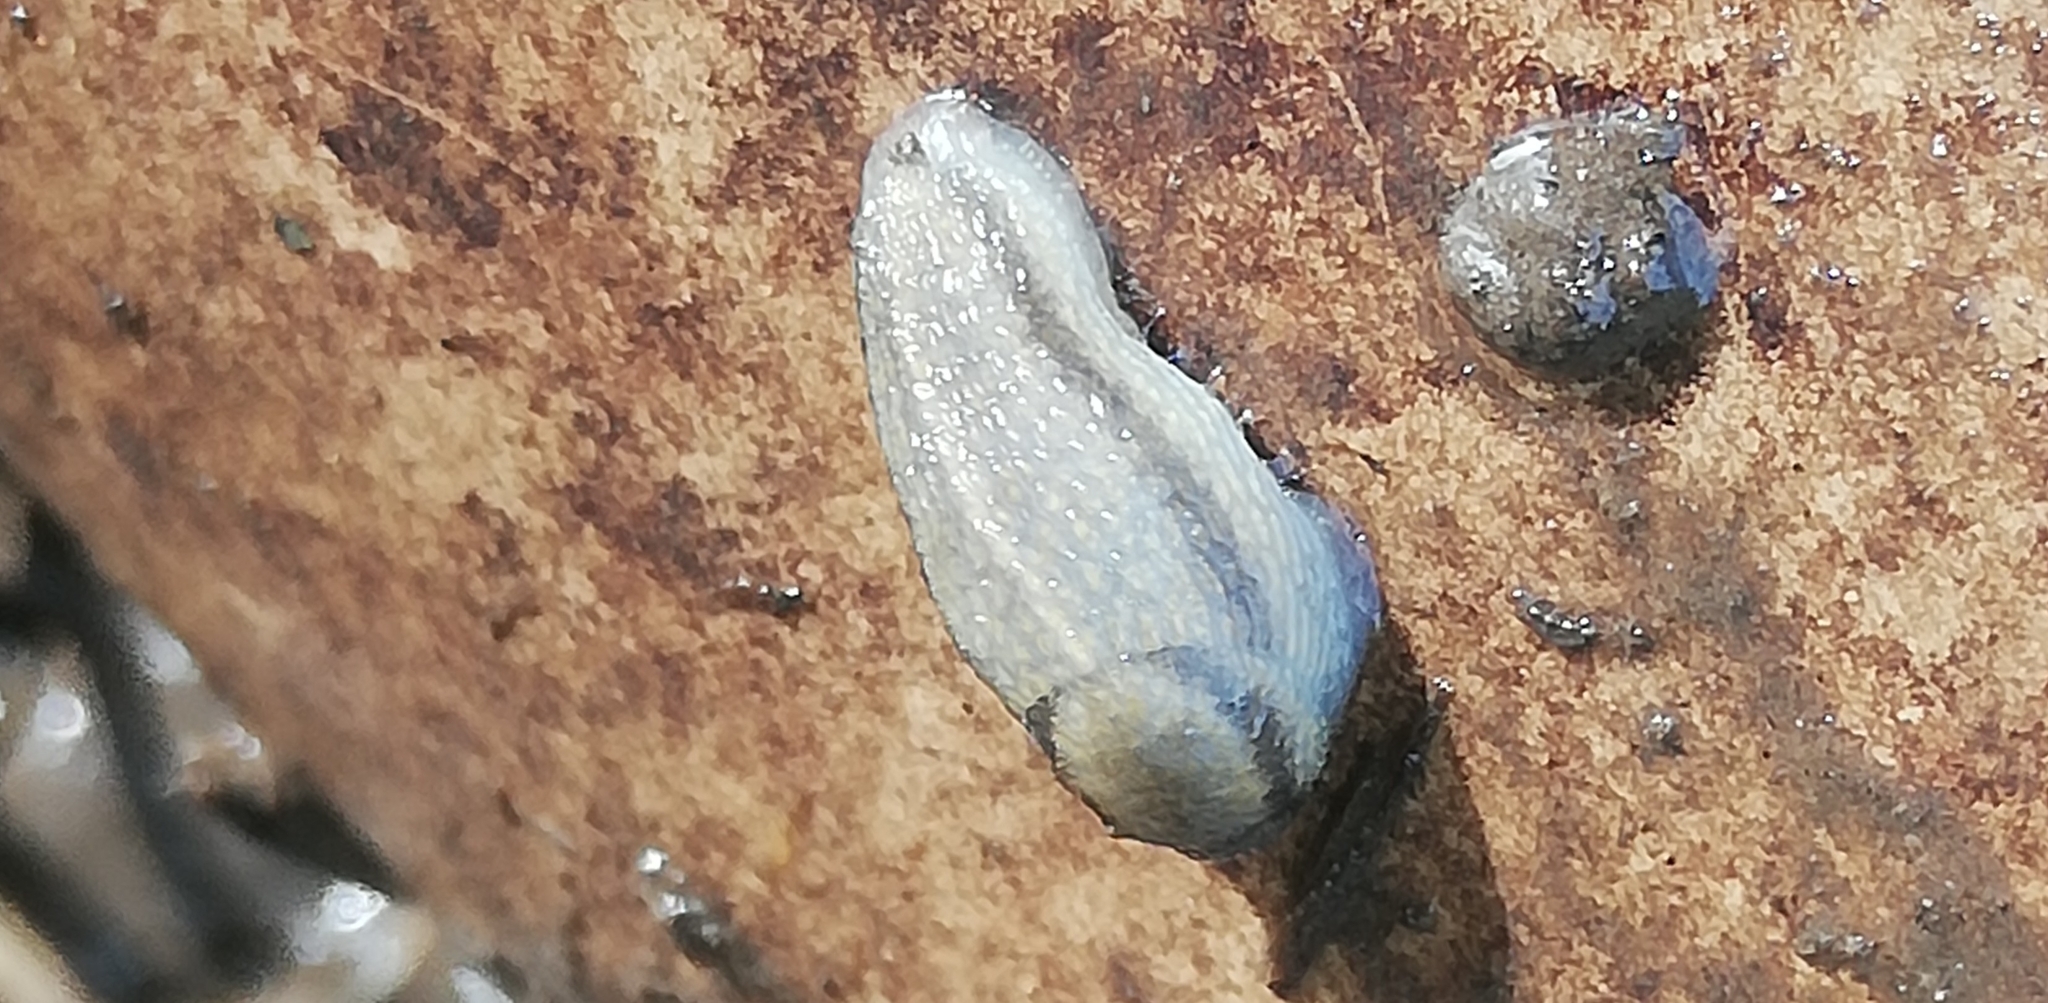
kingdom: Animalia
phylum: Mollusca
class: Gastropoda
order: Stylommatophora
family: Arionidae
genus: Arion
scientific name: Arion fasciatus
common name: Orange-banded arion
